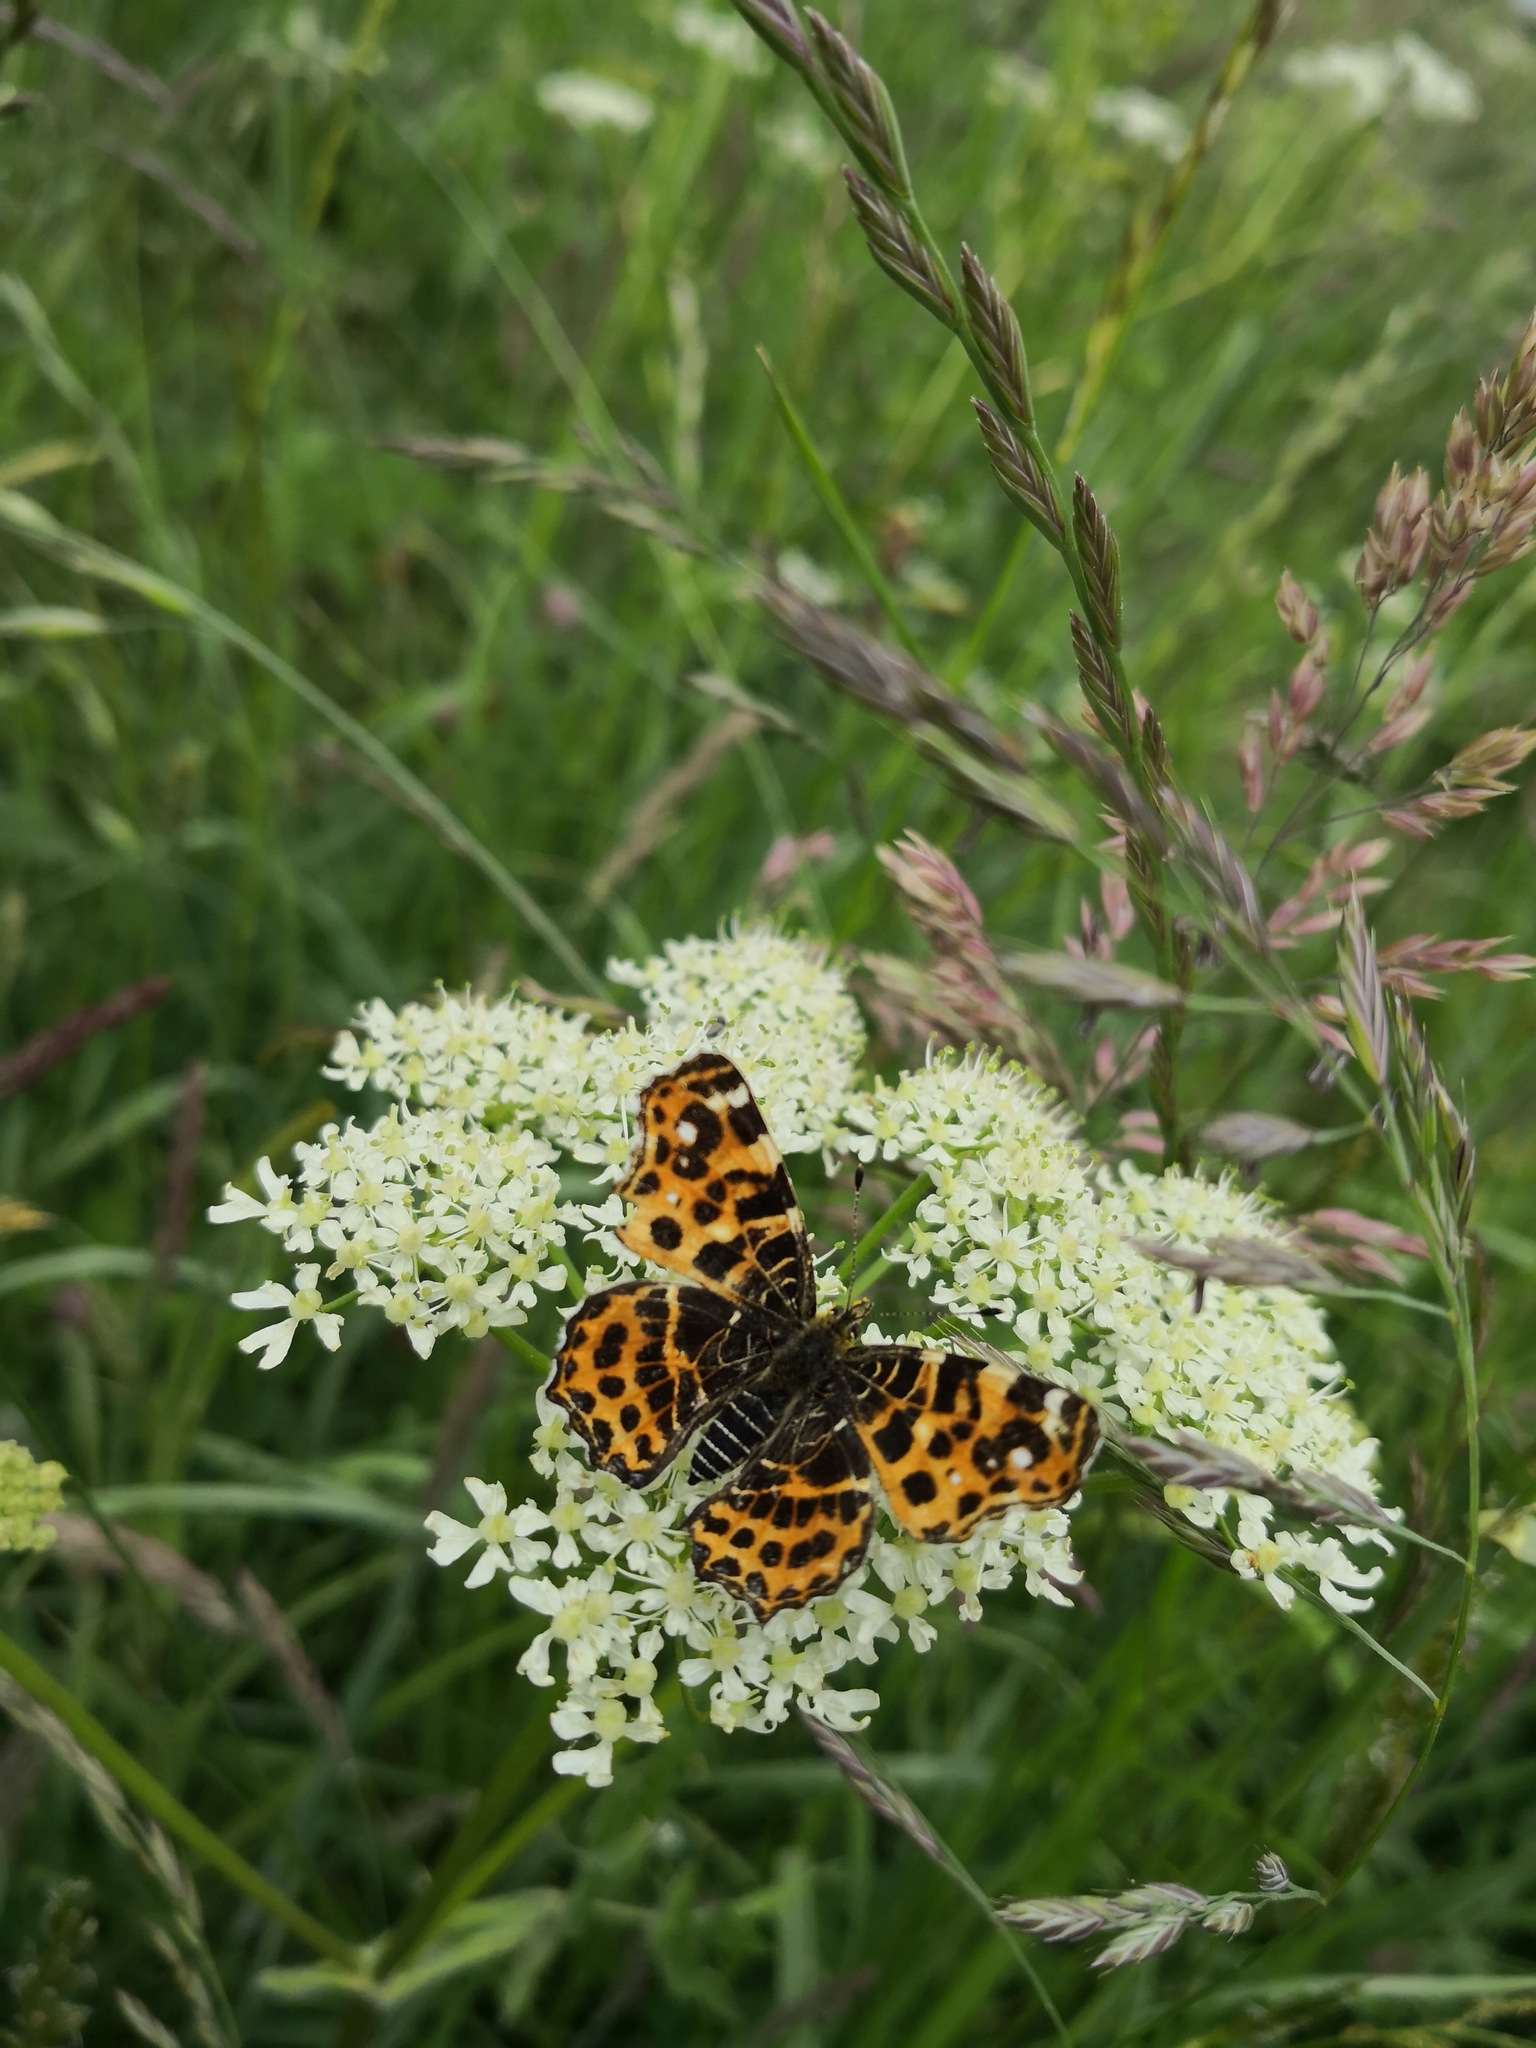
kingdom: Animalia
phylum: Arthropoda
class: Insecta
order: Lepidoptera
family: Nymphalidae
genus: Araschnia
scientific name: Araschnia levana
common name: Map butterfly
